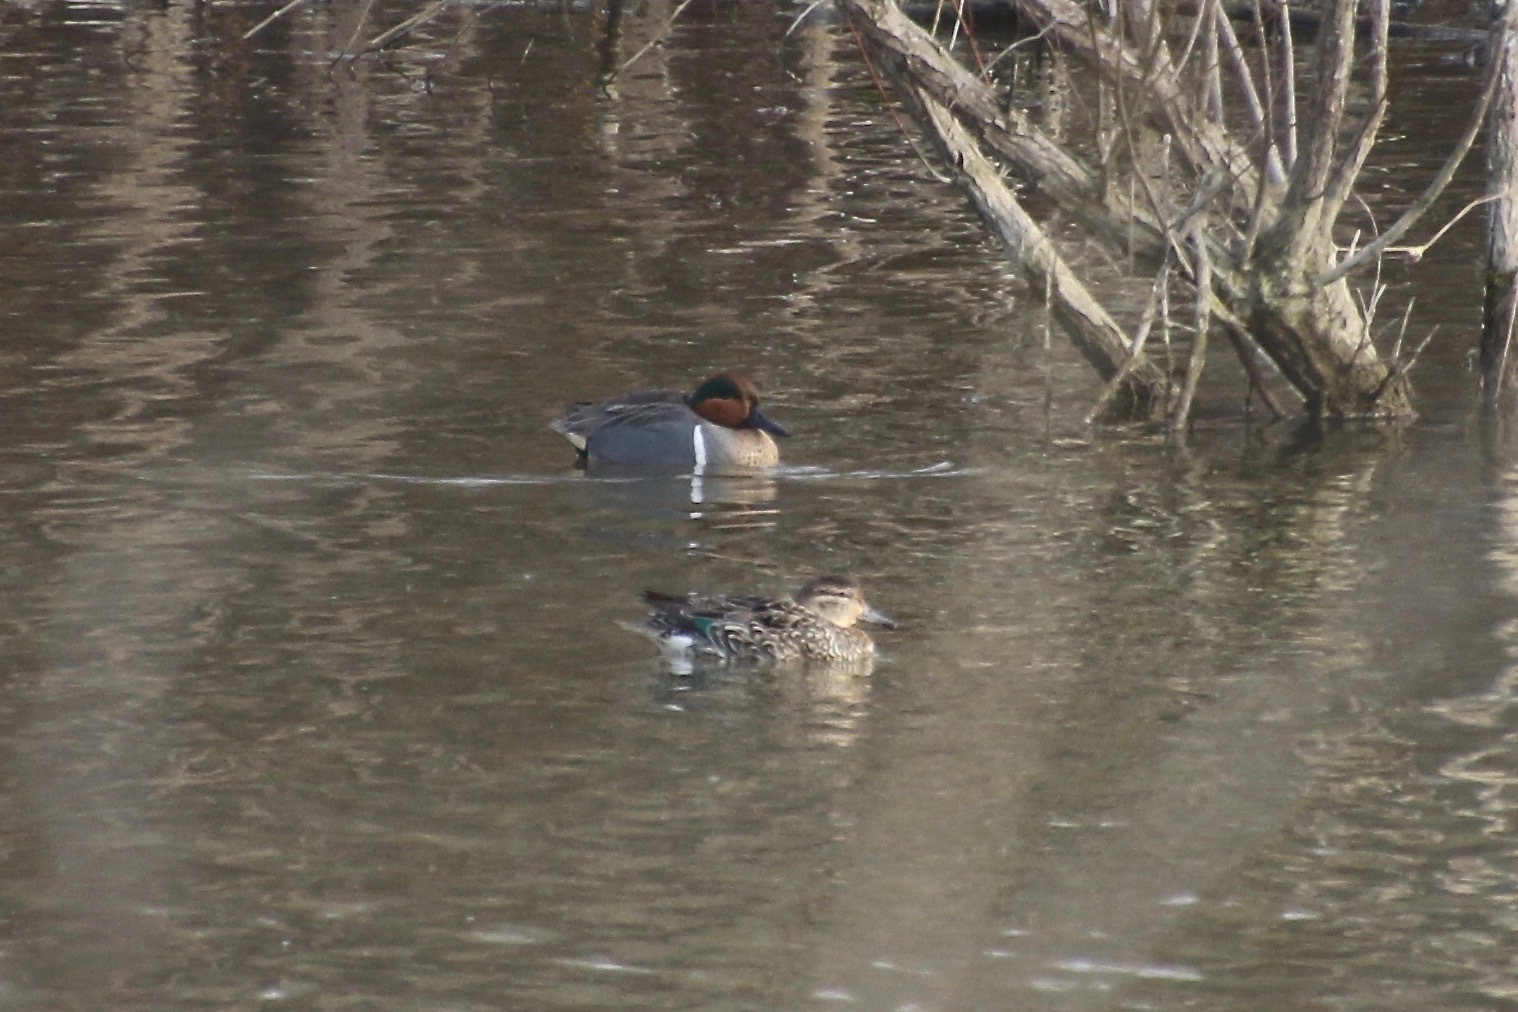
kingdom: Animalia
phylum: Chordata
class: Aves
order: Anseriformes
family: Anatidae
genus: Anas
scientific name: Anas crecca
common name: Eurasian teal
